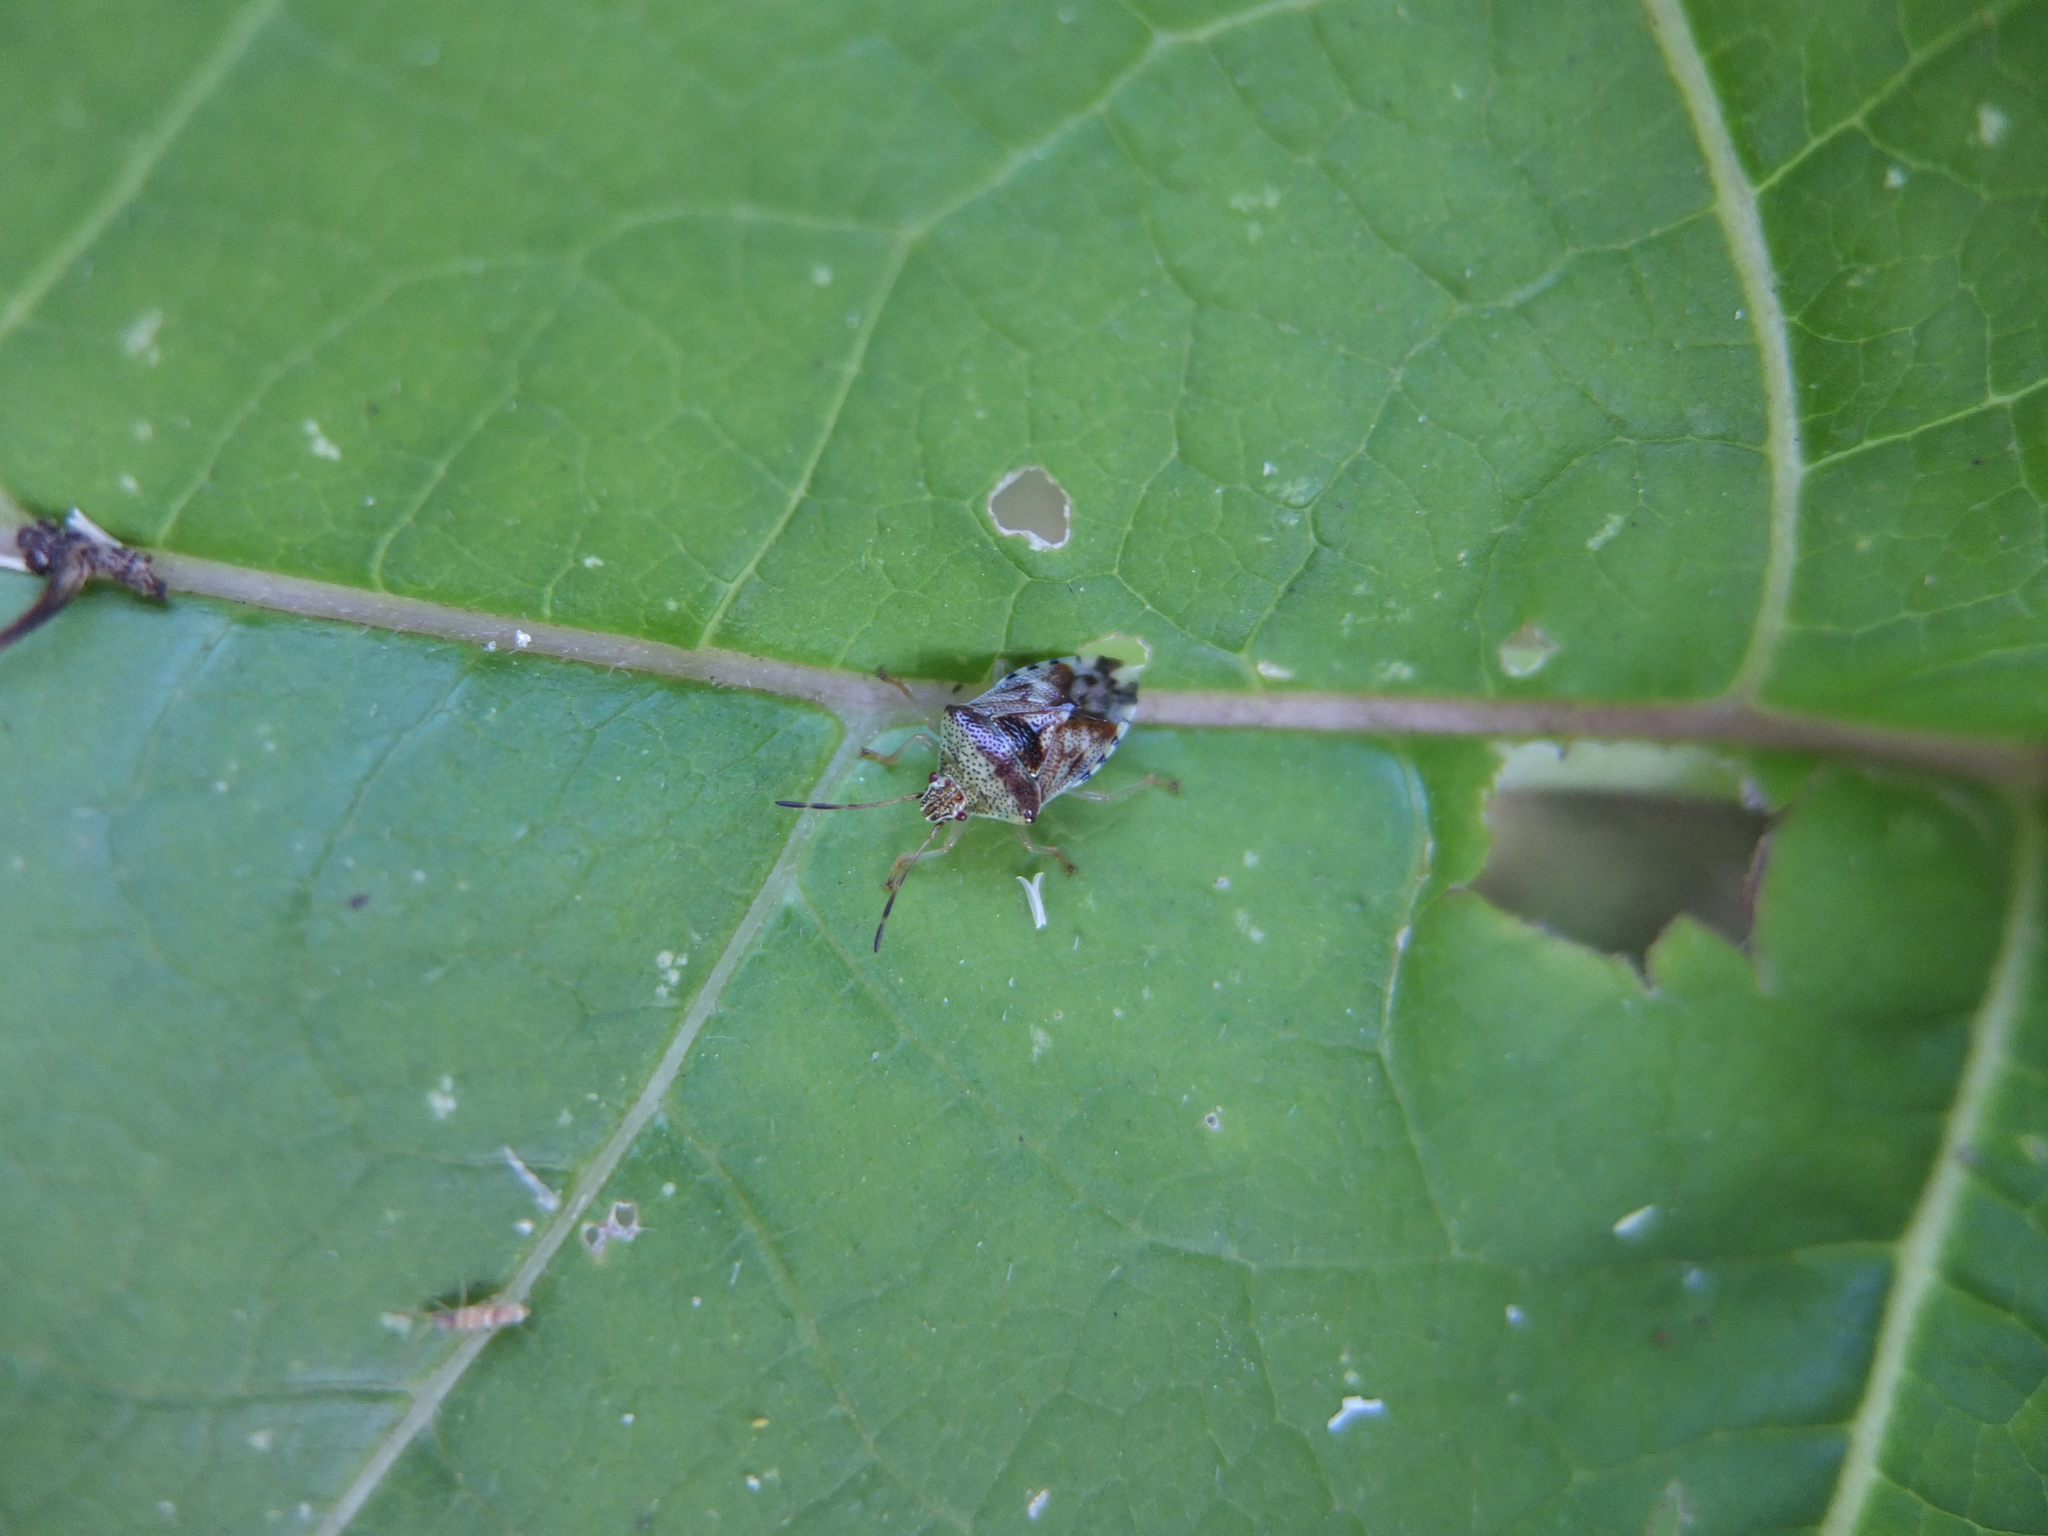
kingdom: Animalia
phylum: Arthropoda
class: Insecta
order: Hemiptera
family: Acanthosomatidae
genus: Elasmucha
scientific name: Elasmucha grisea
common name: Parent bug
